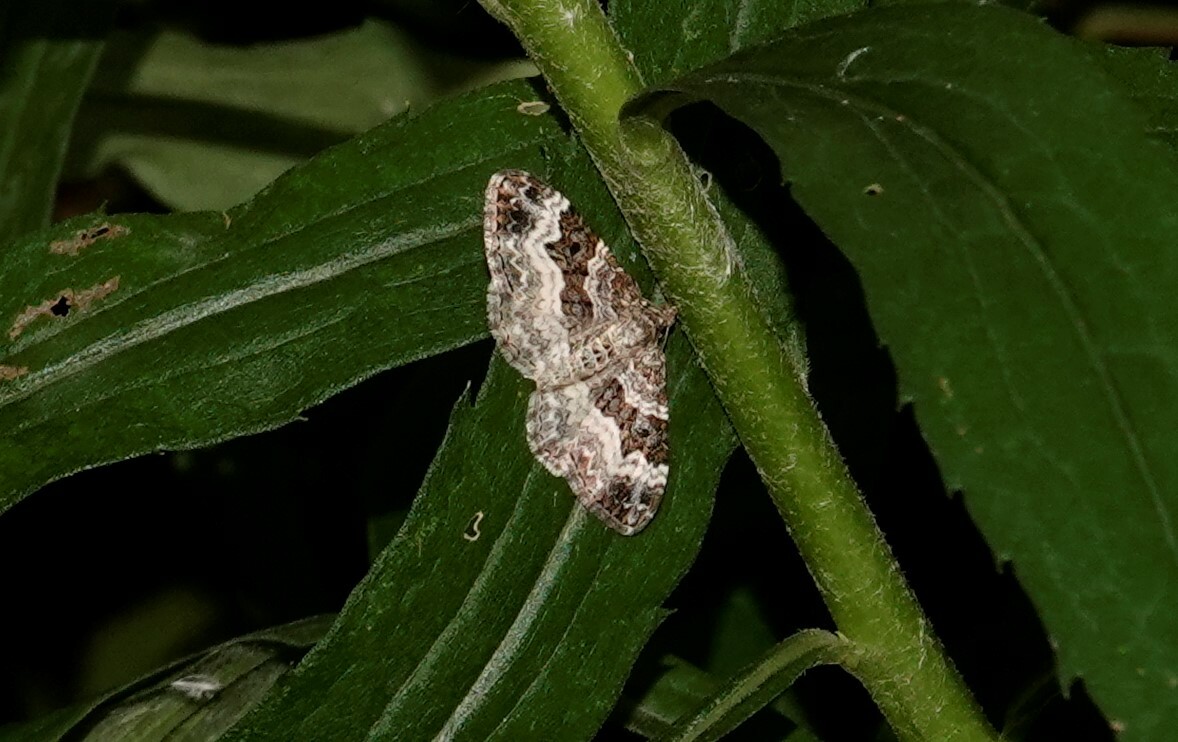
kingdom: Animalia
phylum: Arthropoda
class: Insecta
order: Lepidoptera
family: Geometridae
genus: Epirrhoe
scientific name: Epirrhoe alternata
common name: Common carpet
